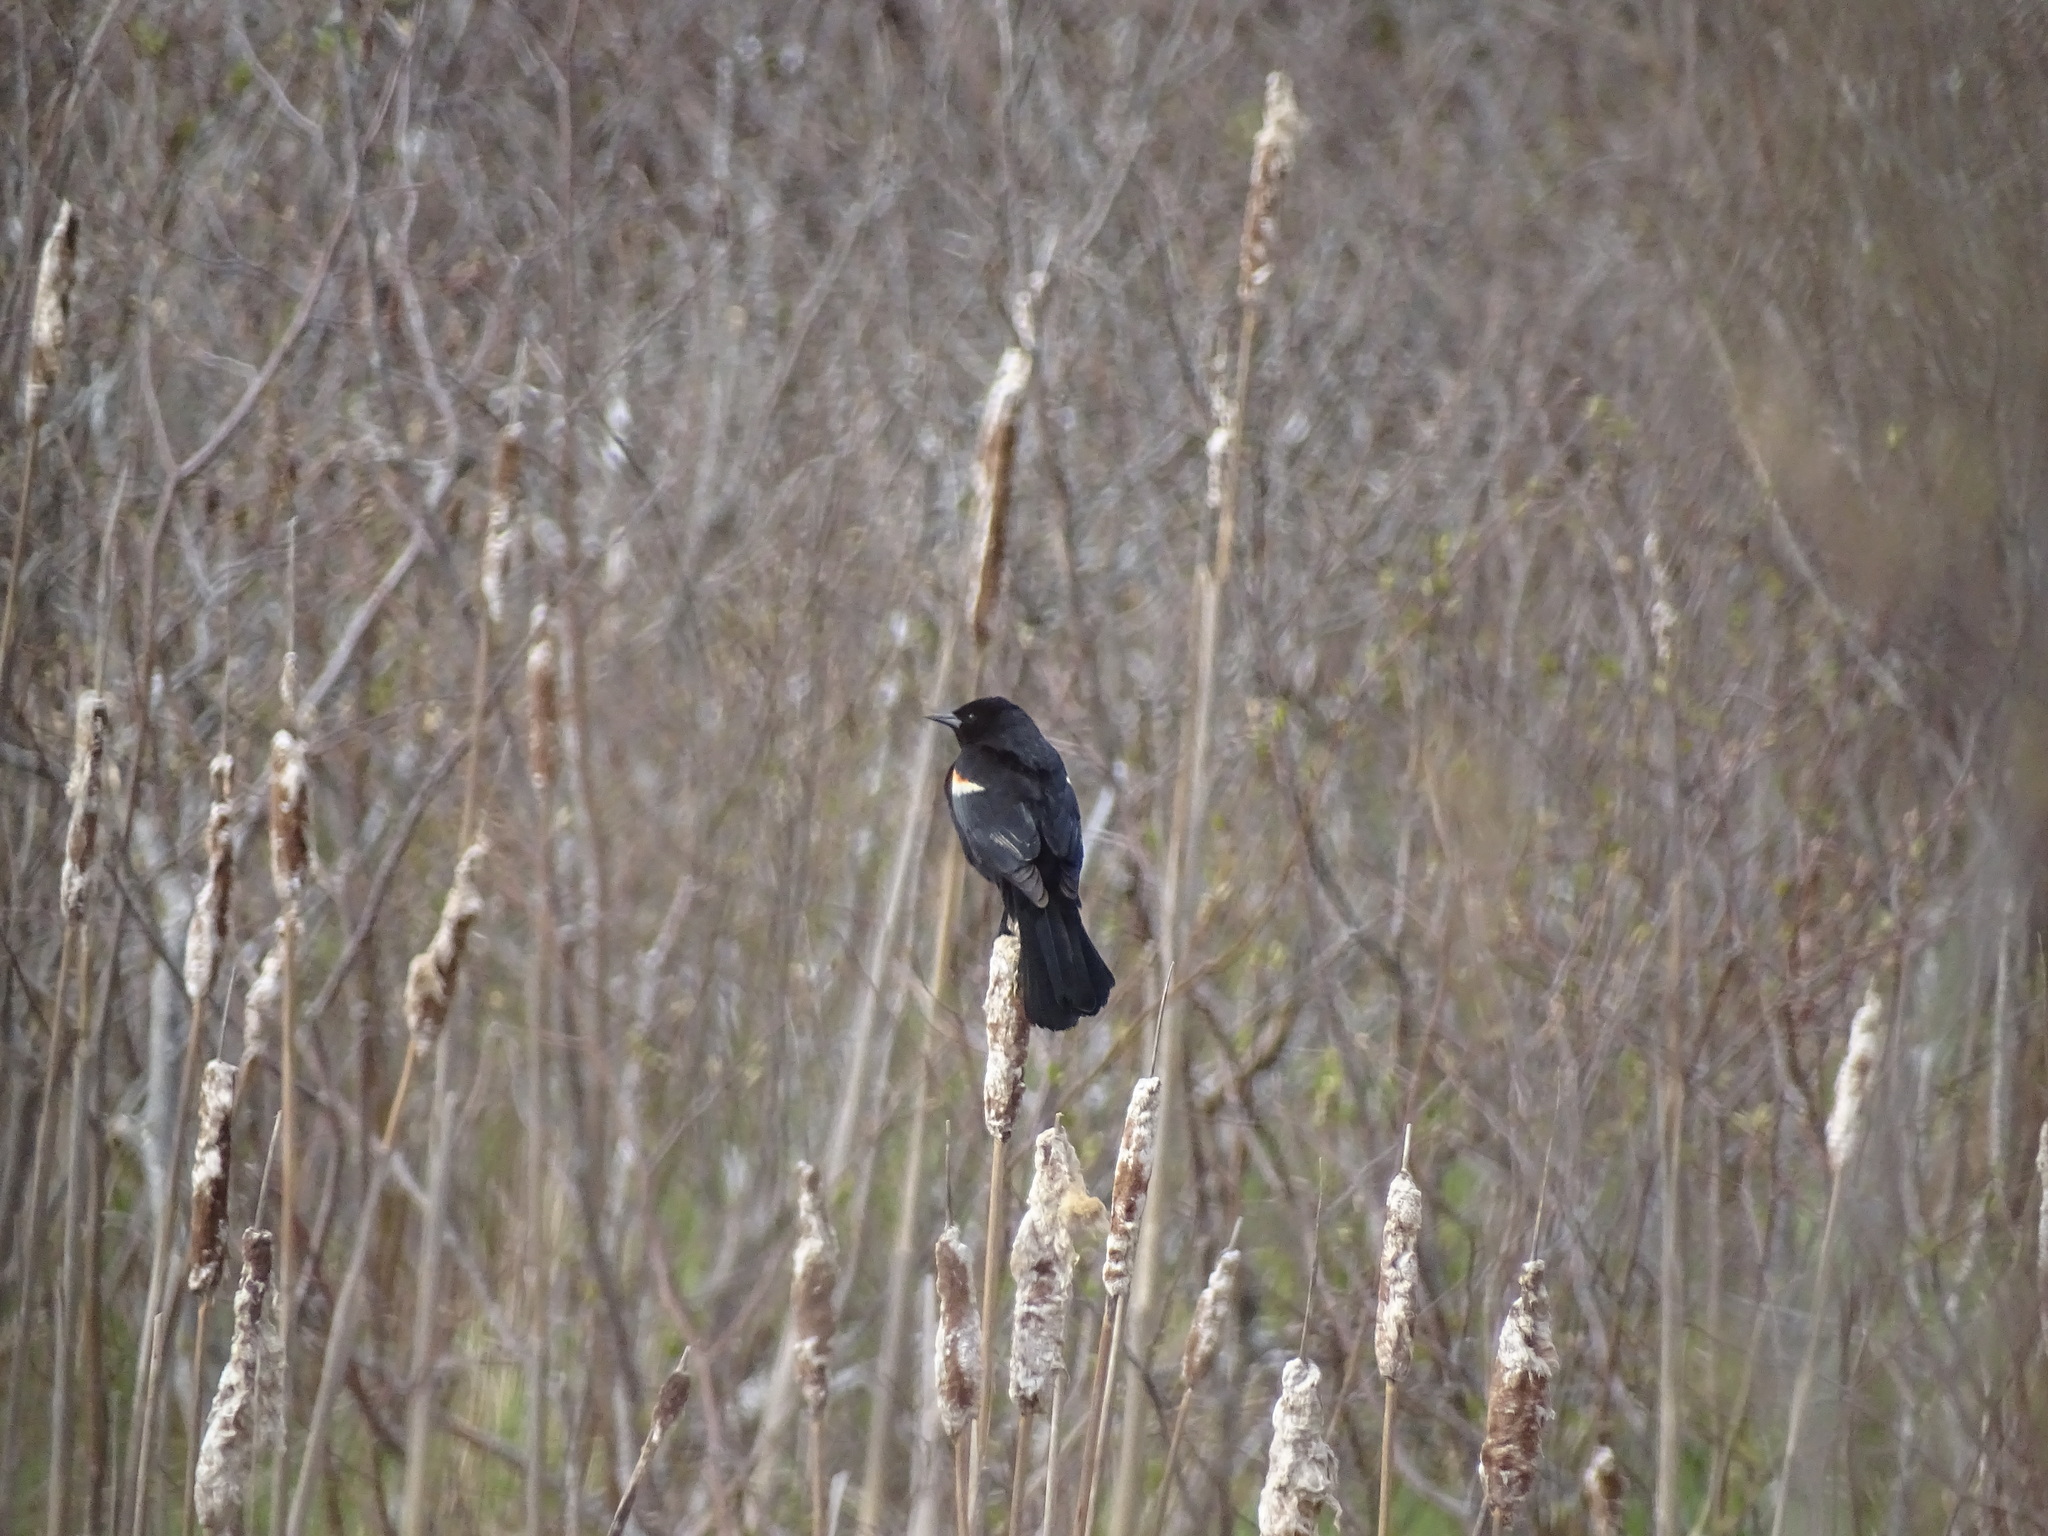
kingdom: Animalia
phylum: Chordata
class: Aves
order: Passeriformes
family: Icteridae
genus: Agelaius
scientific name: Agelaius phoeniceus
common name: Red-winged blackbird
